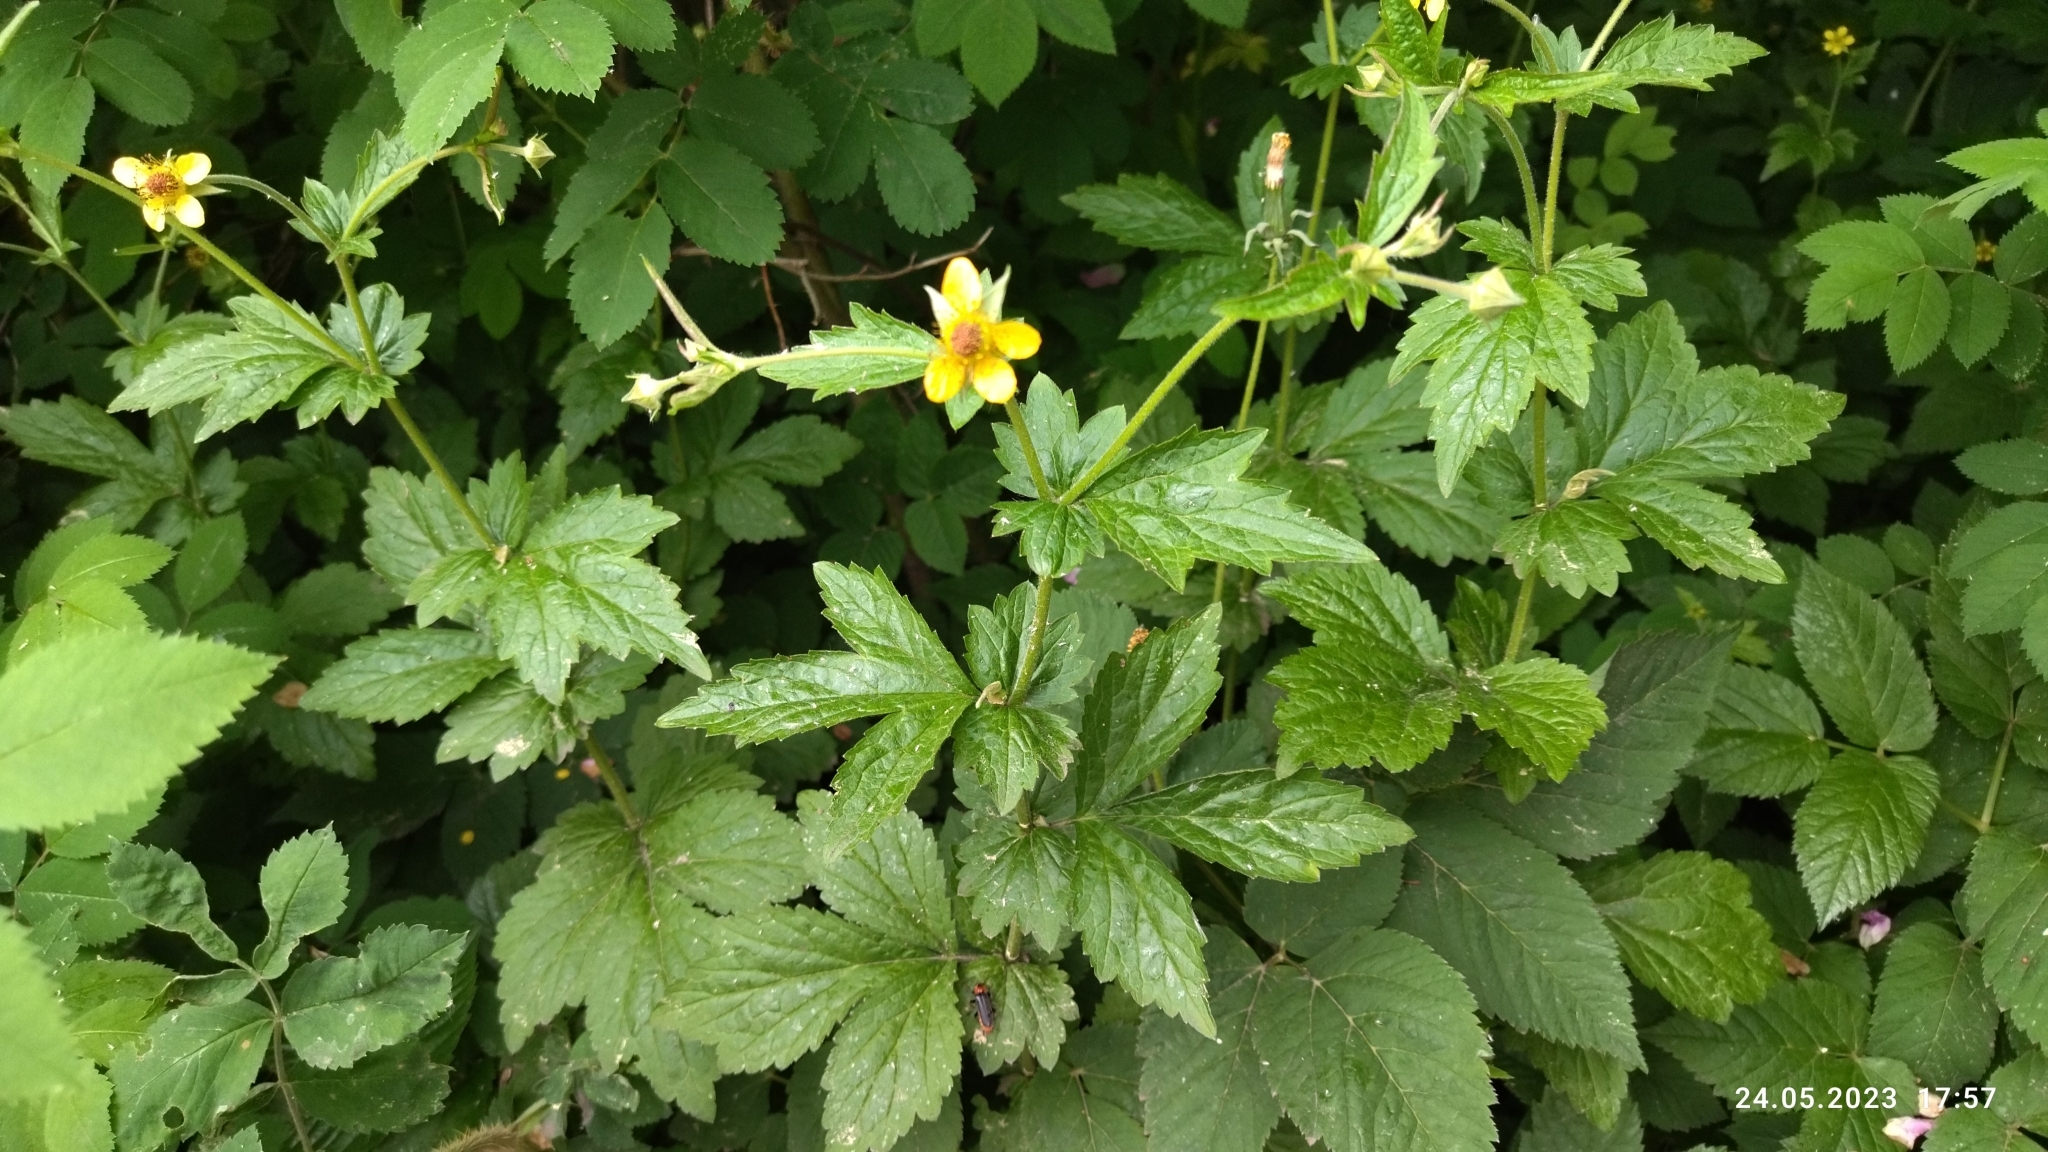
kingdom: Plantae
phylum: Tracheophyta
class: Magnoliopsida
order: Rosales
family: Rosaceae
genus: Geum
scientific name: Geum urbanum
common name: Wood avens
